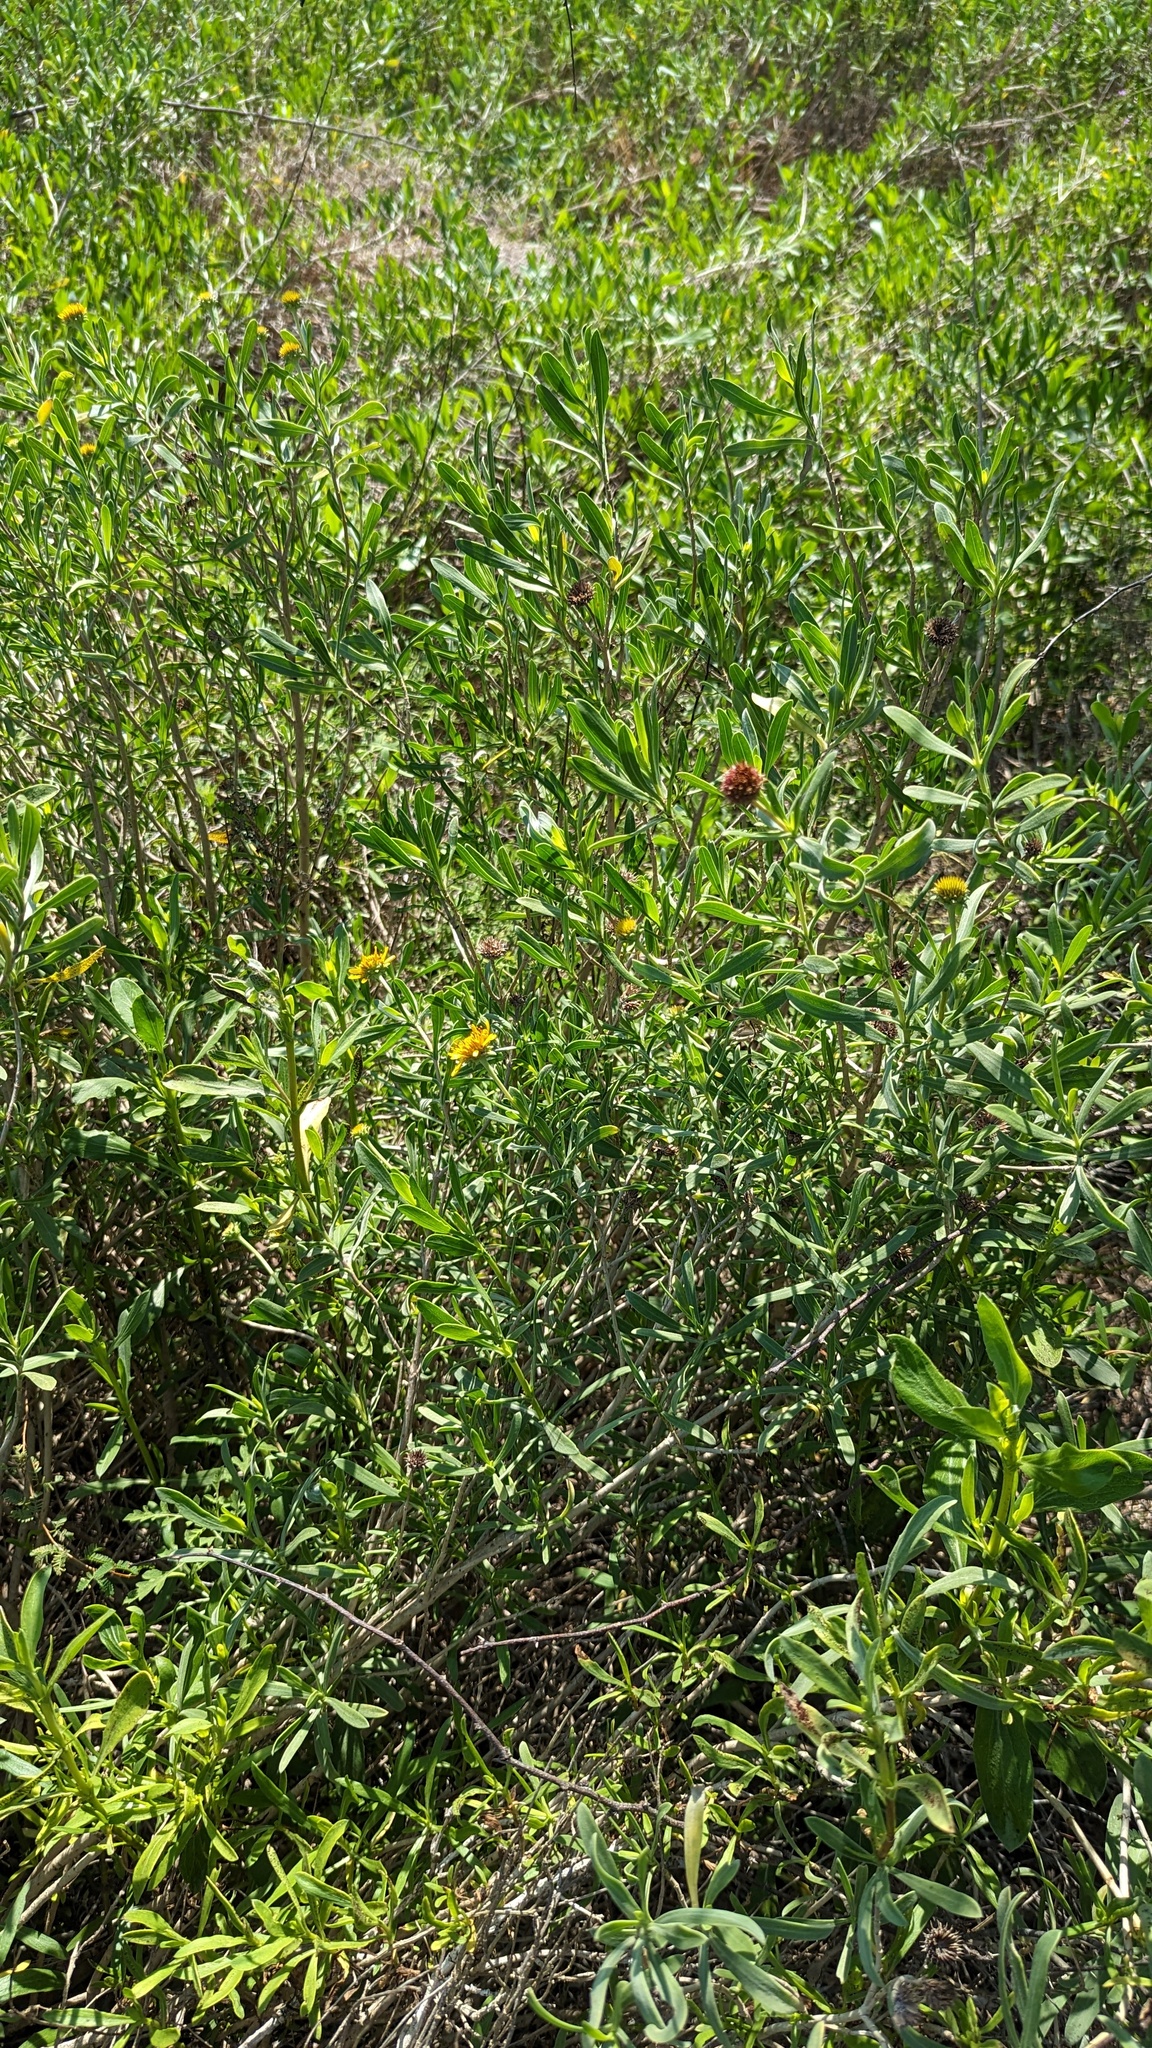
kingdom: Plantae
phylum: Tracheophyta
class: Magnoliopsida
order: Asterales
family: Asteraceae
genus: Borrichia
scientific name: Borrichia frutescens
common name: Sea oxeye
